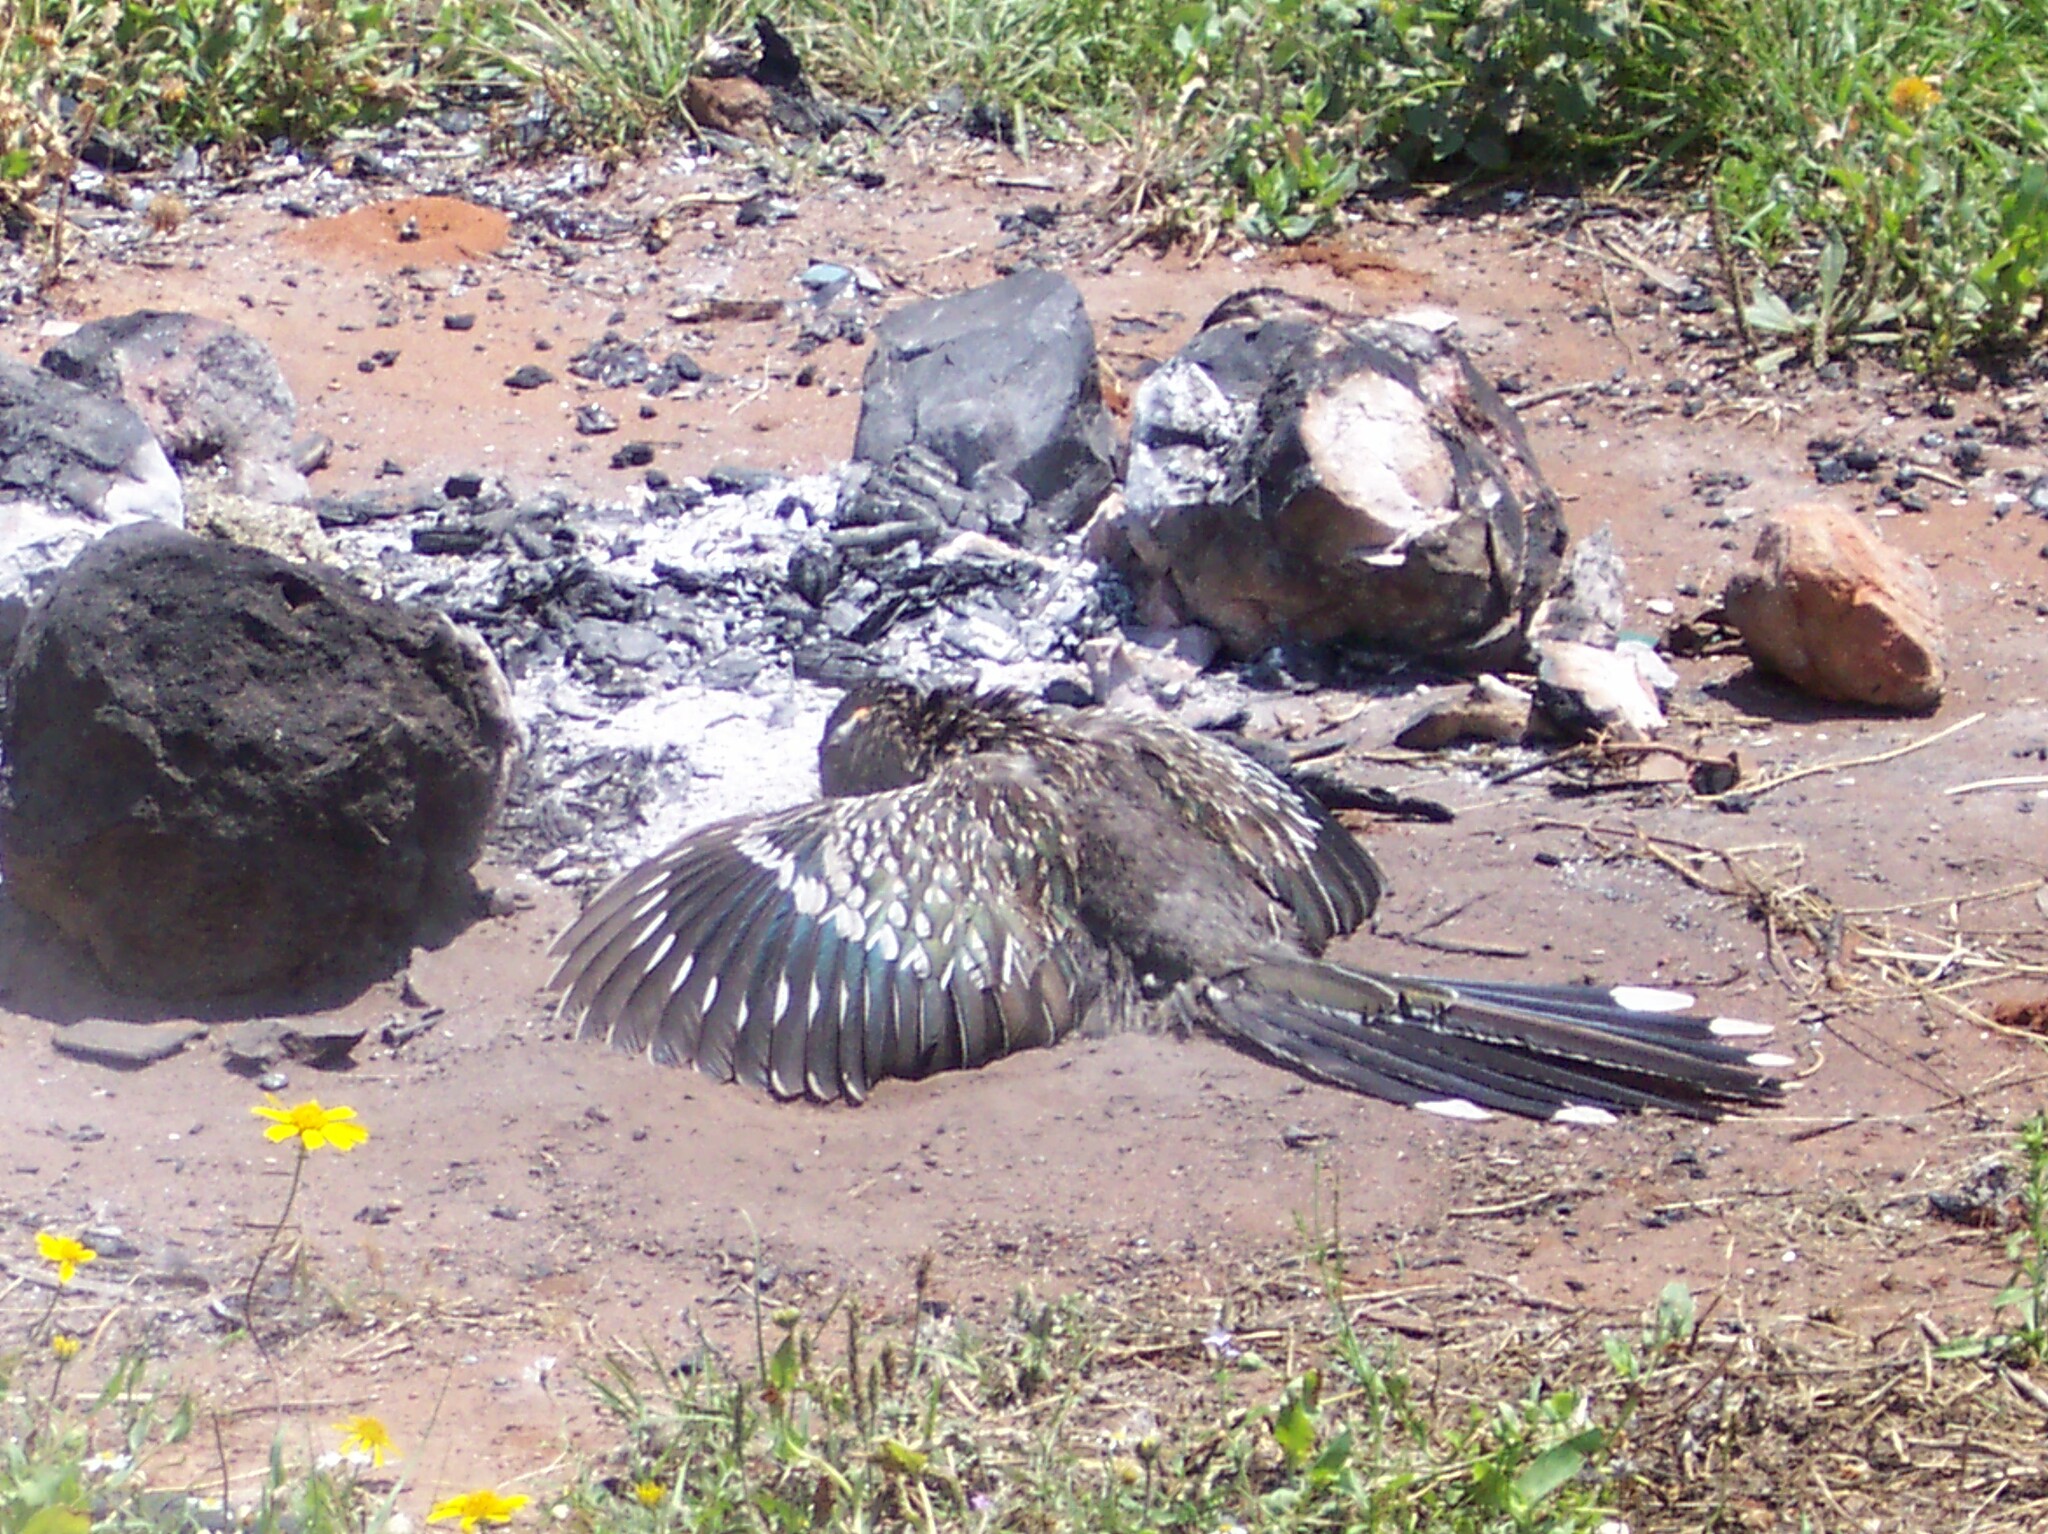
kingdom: Animalia
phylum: Chordata
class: Aves
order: Cuculiformes
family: Cuculidae
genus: Geococcyx
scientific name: Geococcyx californianus
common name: Greater roadrunner
